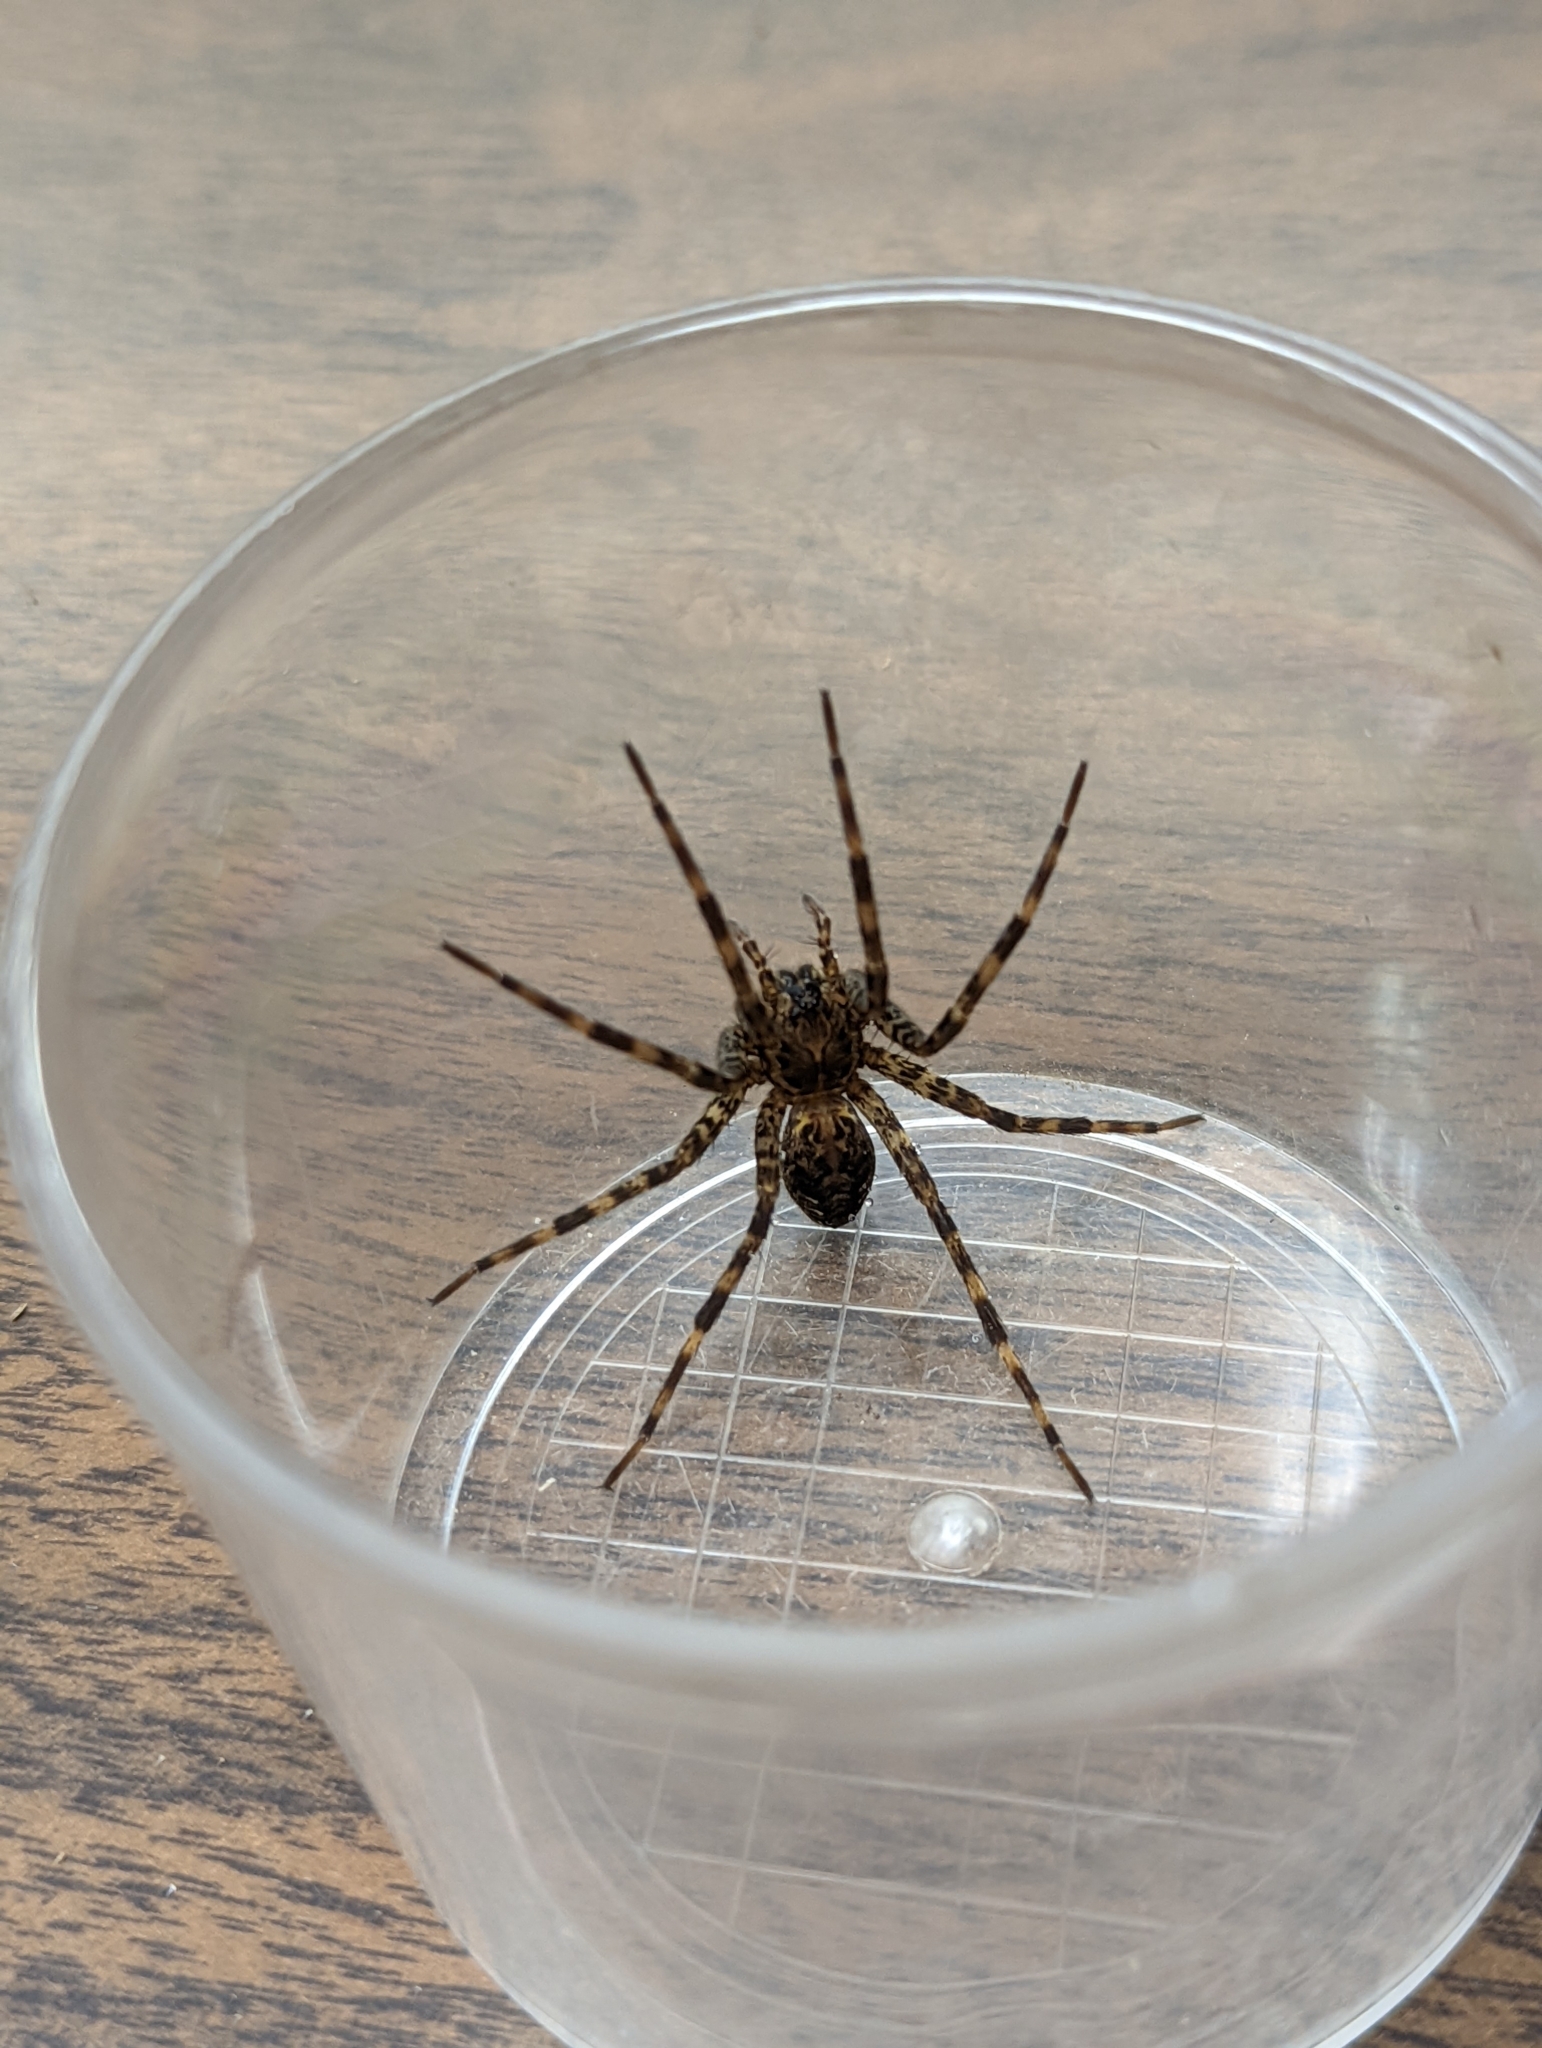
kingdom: Animalia
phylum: Arthropoda
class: Arachnida
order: Araneae
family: Pisauridae
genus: Dolomedes
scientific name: Dolomedes tenebrosus
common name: Dark fishing spider
